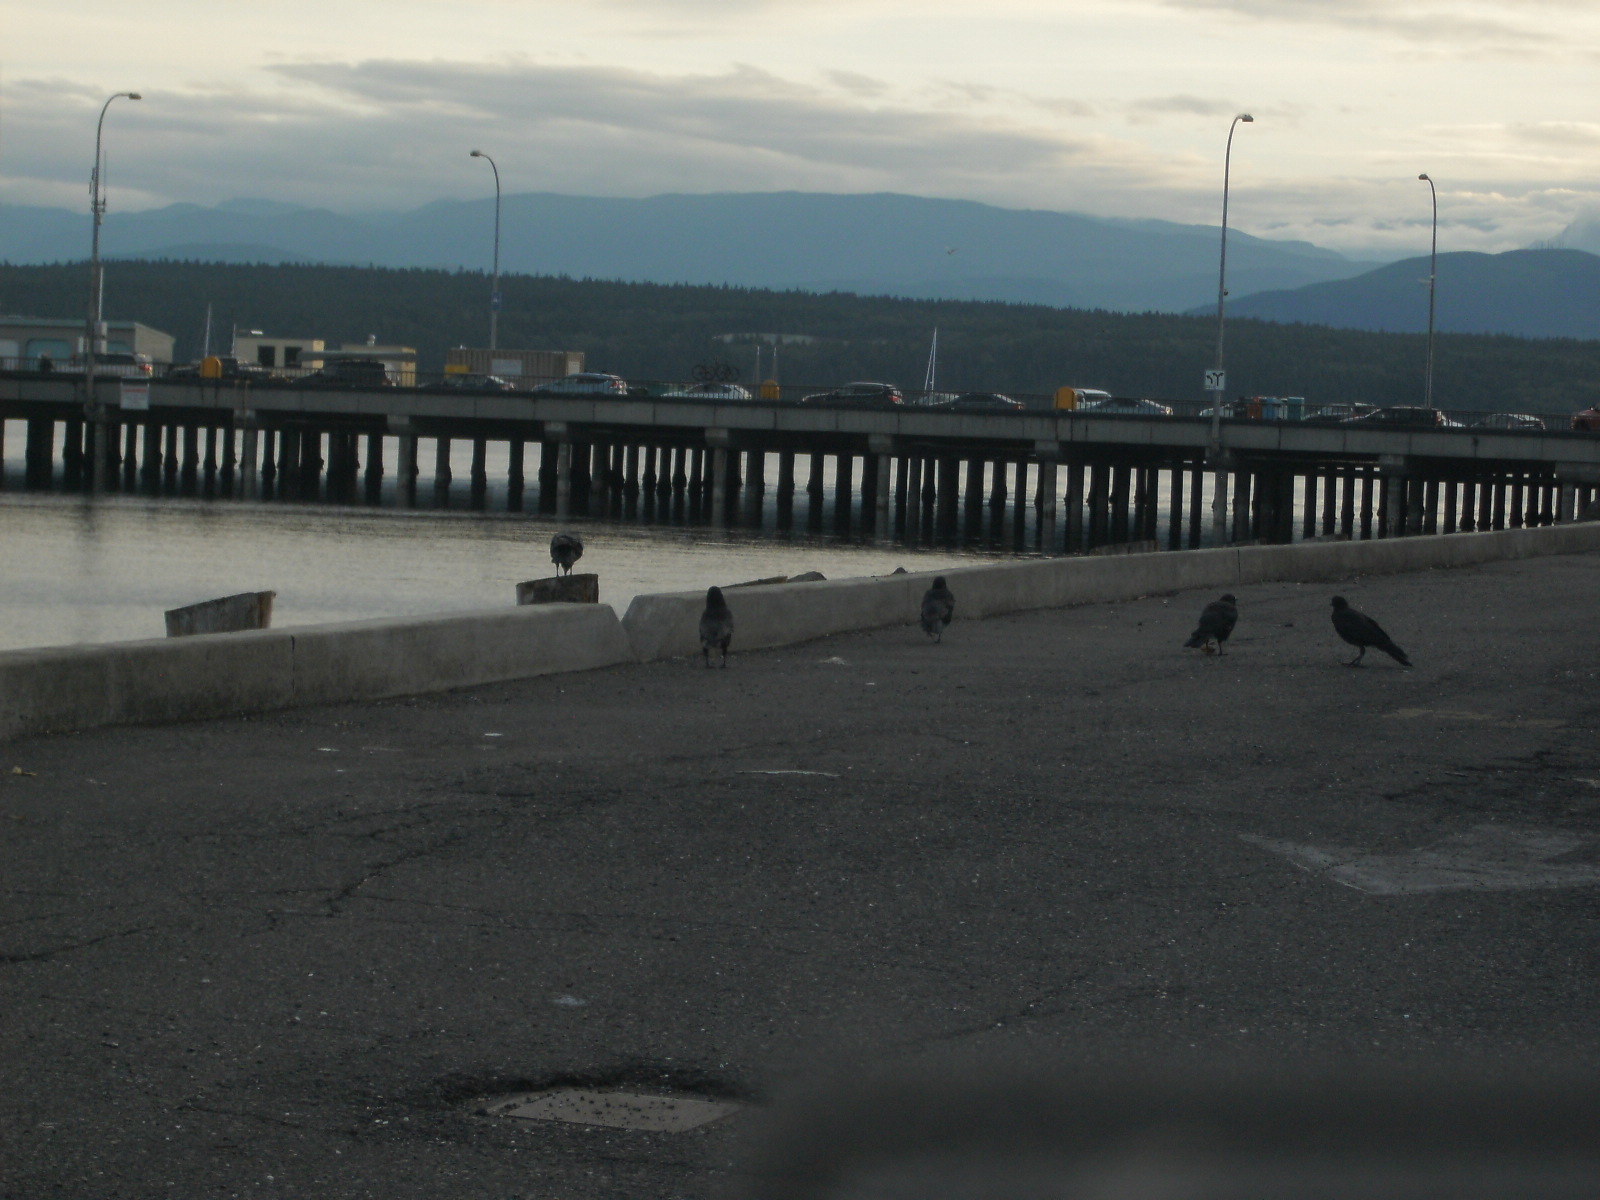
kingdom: Animalia
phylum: Chordata
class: Aves
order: Passeriformes
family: Corvidae
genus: Corvus
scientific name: Corvus brachyrhynchos
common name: American crow
